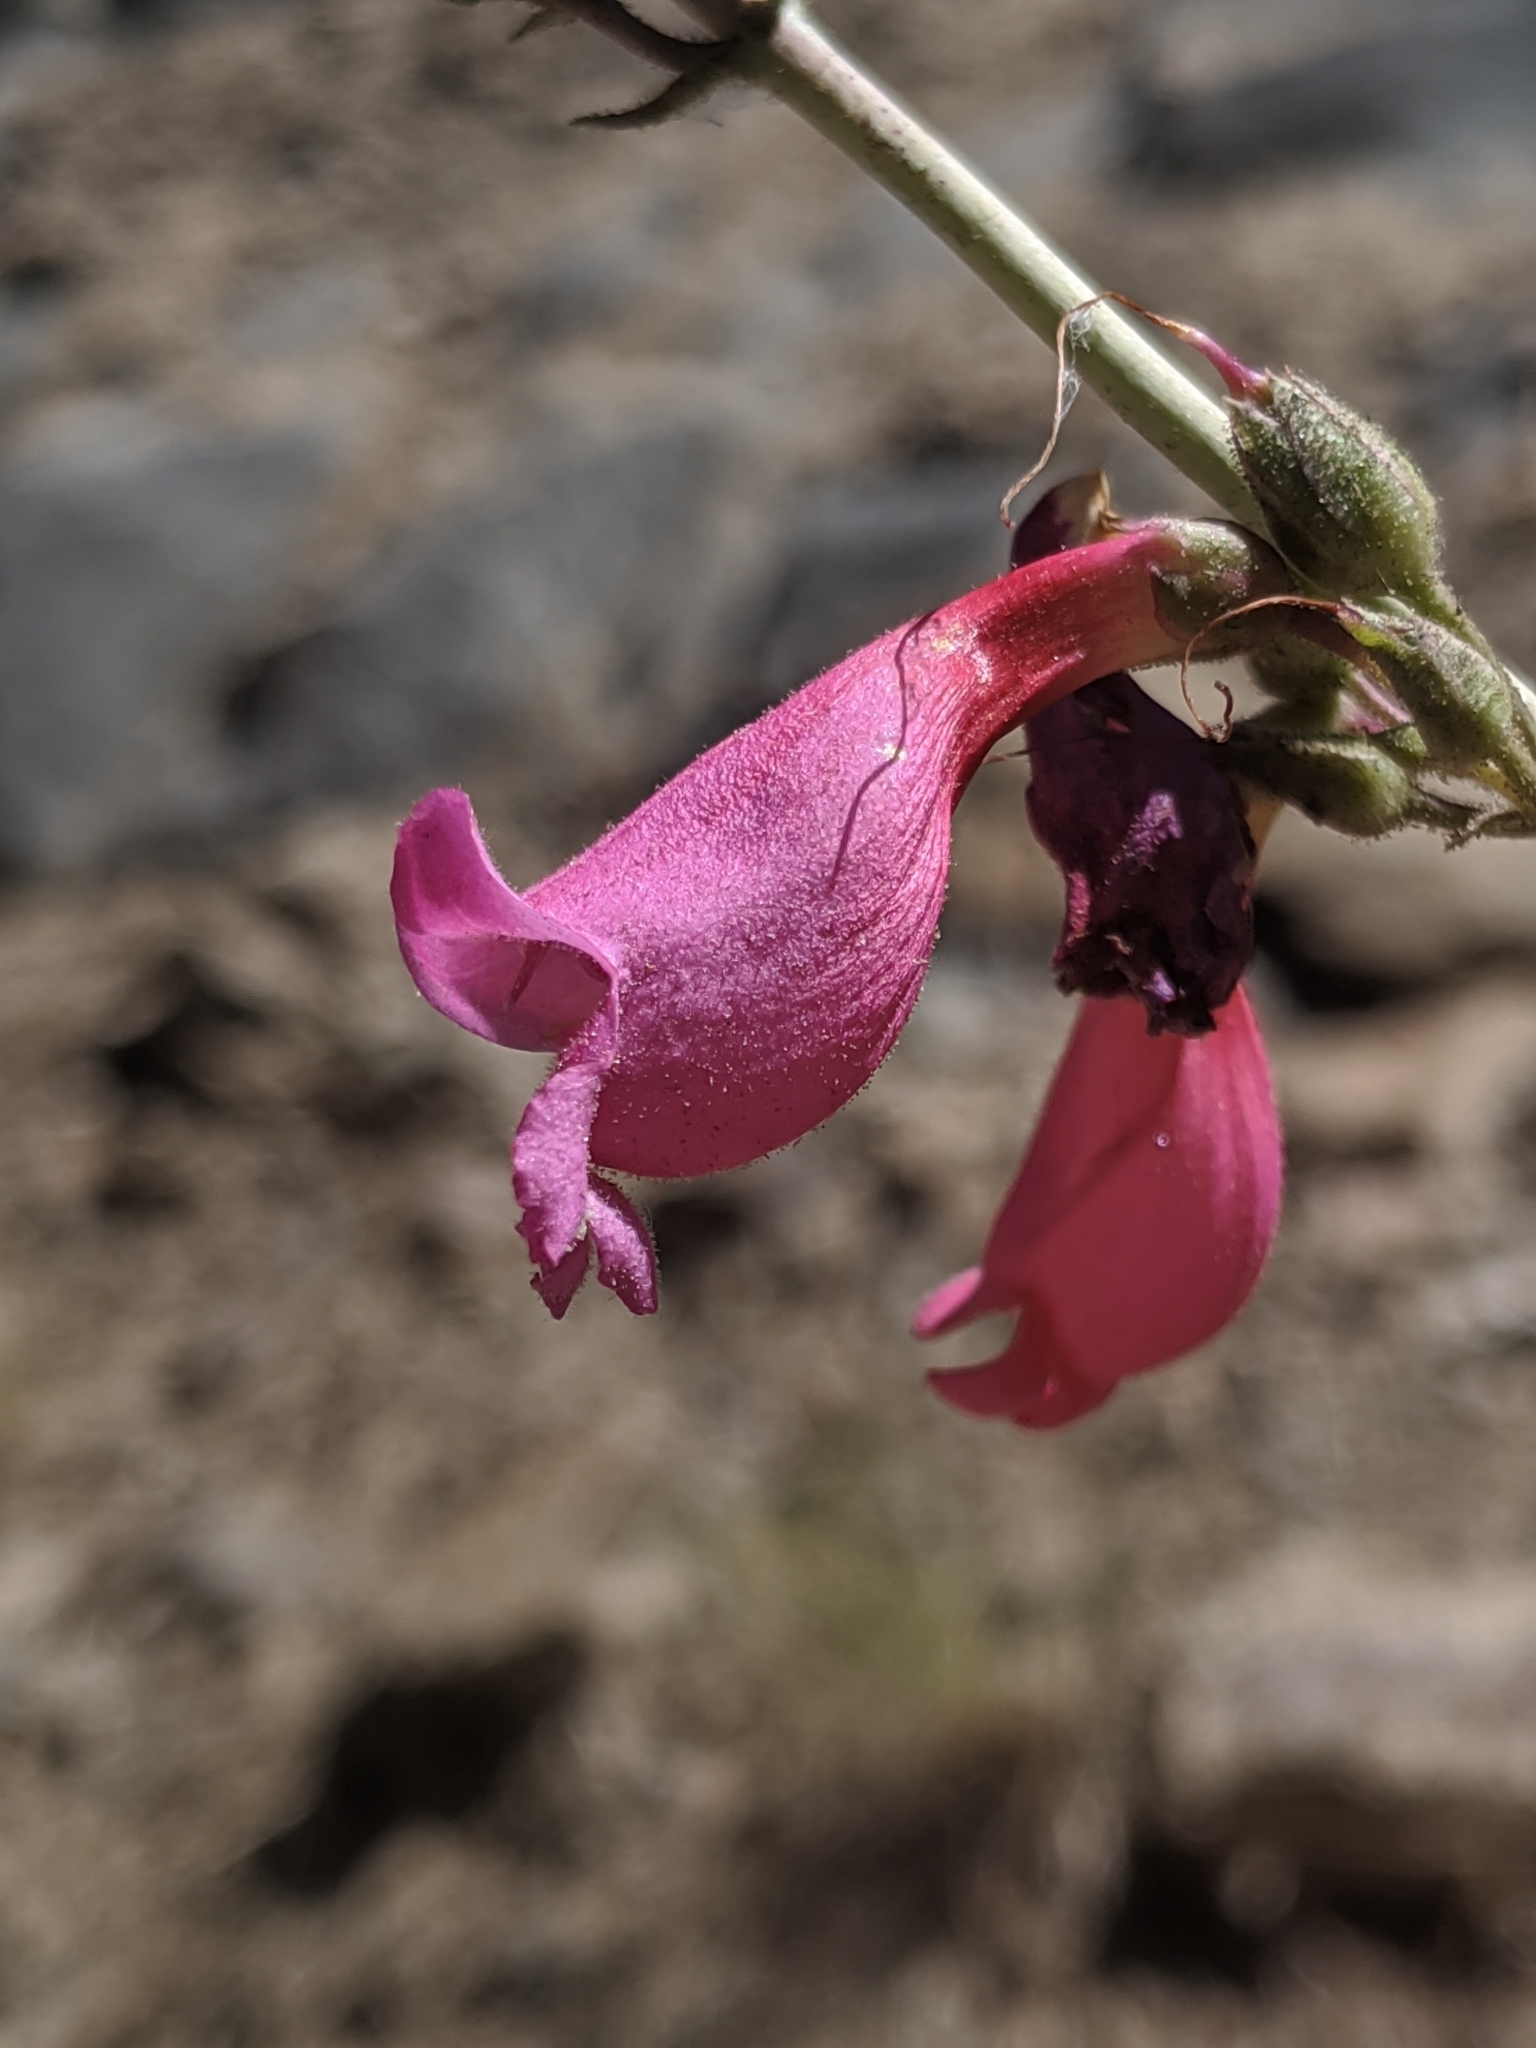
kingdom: Plantae
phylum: Tracheophyta
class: Magnoliopsida
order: Lamiales
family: Plantaginaceae
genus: Penstemon
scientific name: Penstemon floridus
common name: Panamint penstemon
